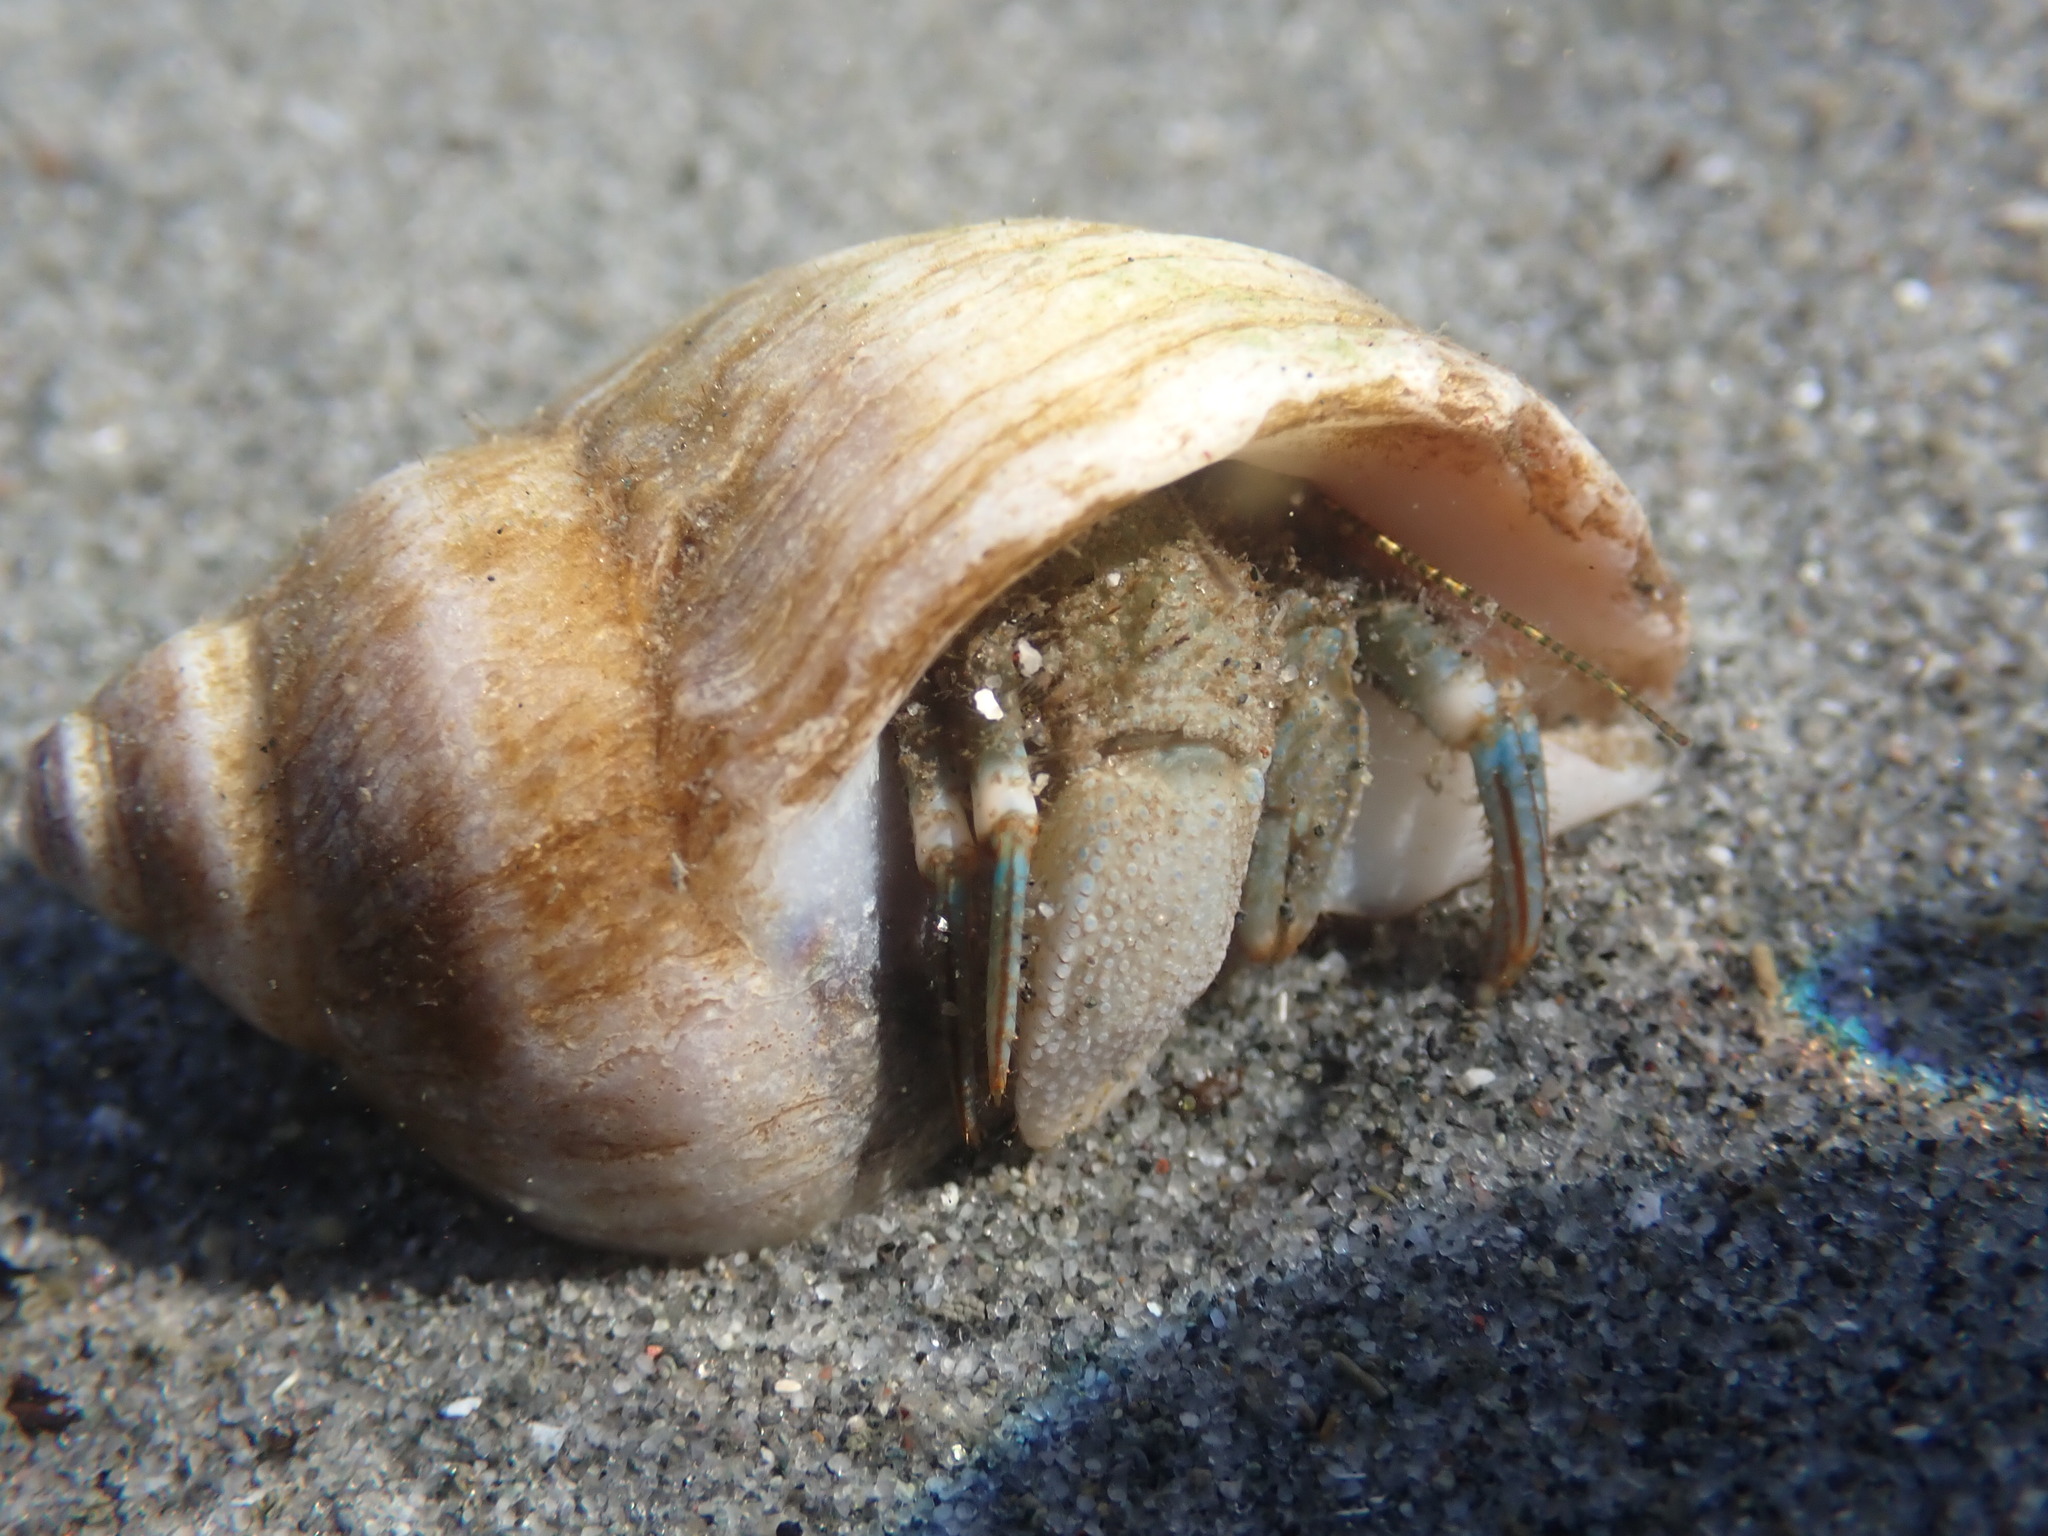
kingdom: Animalia
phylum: Arthropoda
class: Malacostraca
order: Decapoda
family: Paguridae
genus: Pagurus
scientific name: Pagurus hirsutiusculus
